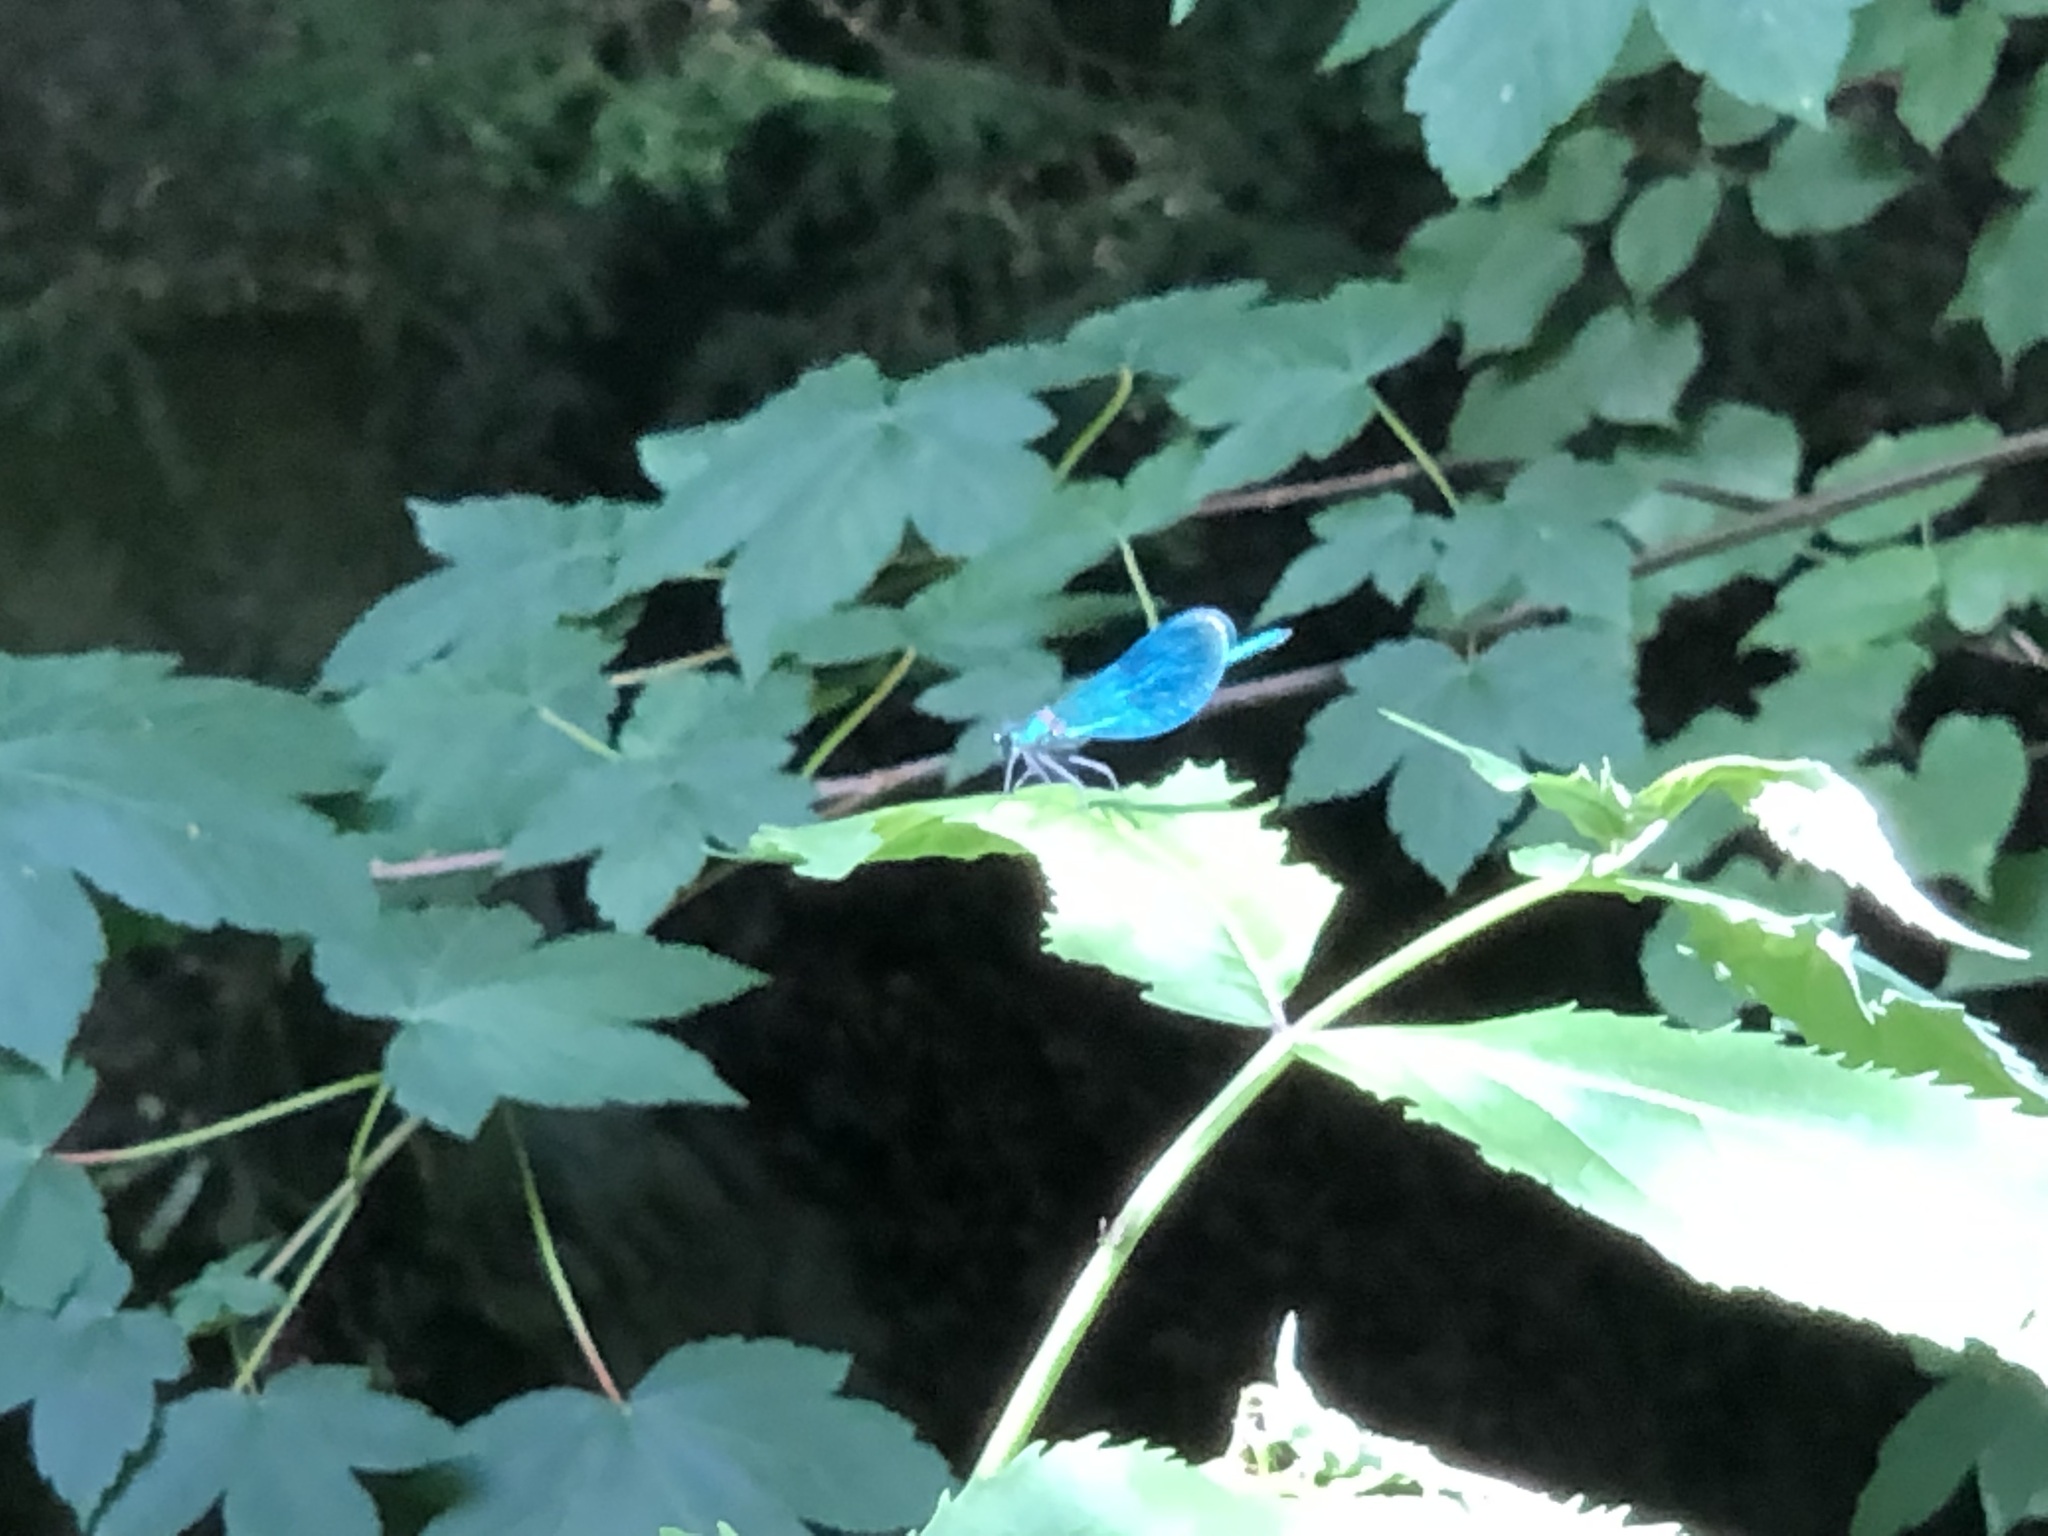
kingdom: Animalia
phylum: Arthropoda
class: Insecta
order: Odonata
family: Calopterygidae
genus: Calopteryx
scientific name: Calopteryx splendens
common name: Banded demoiselle
